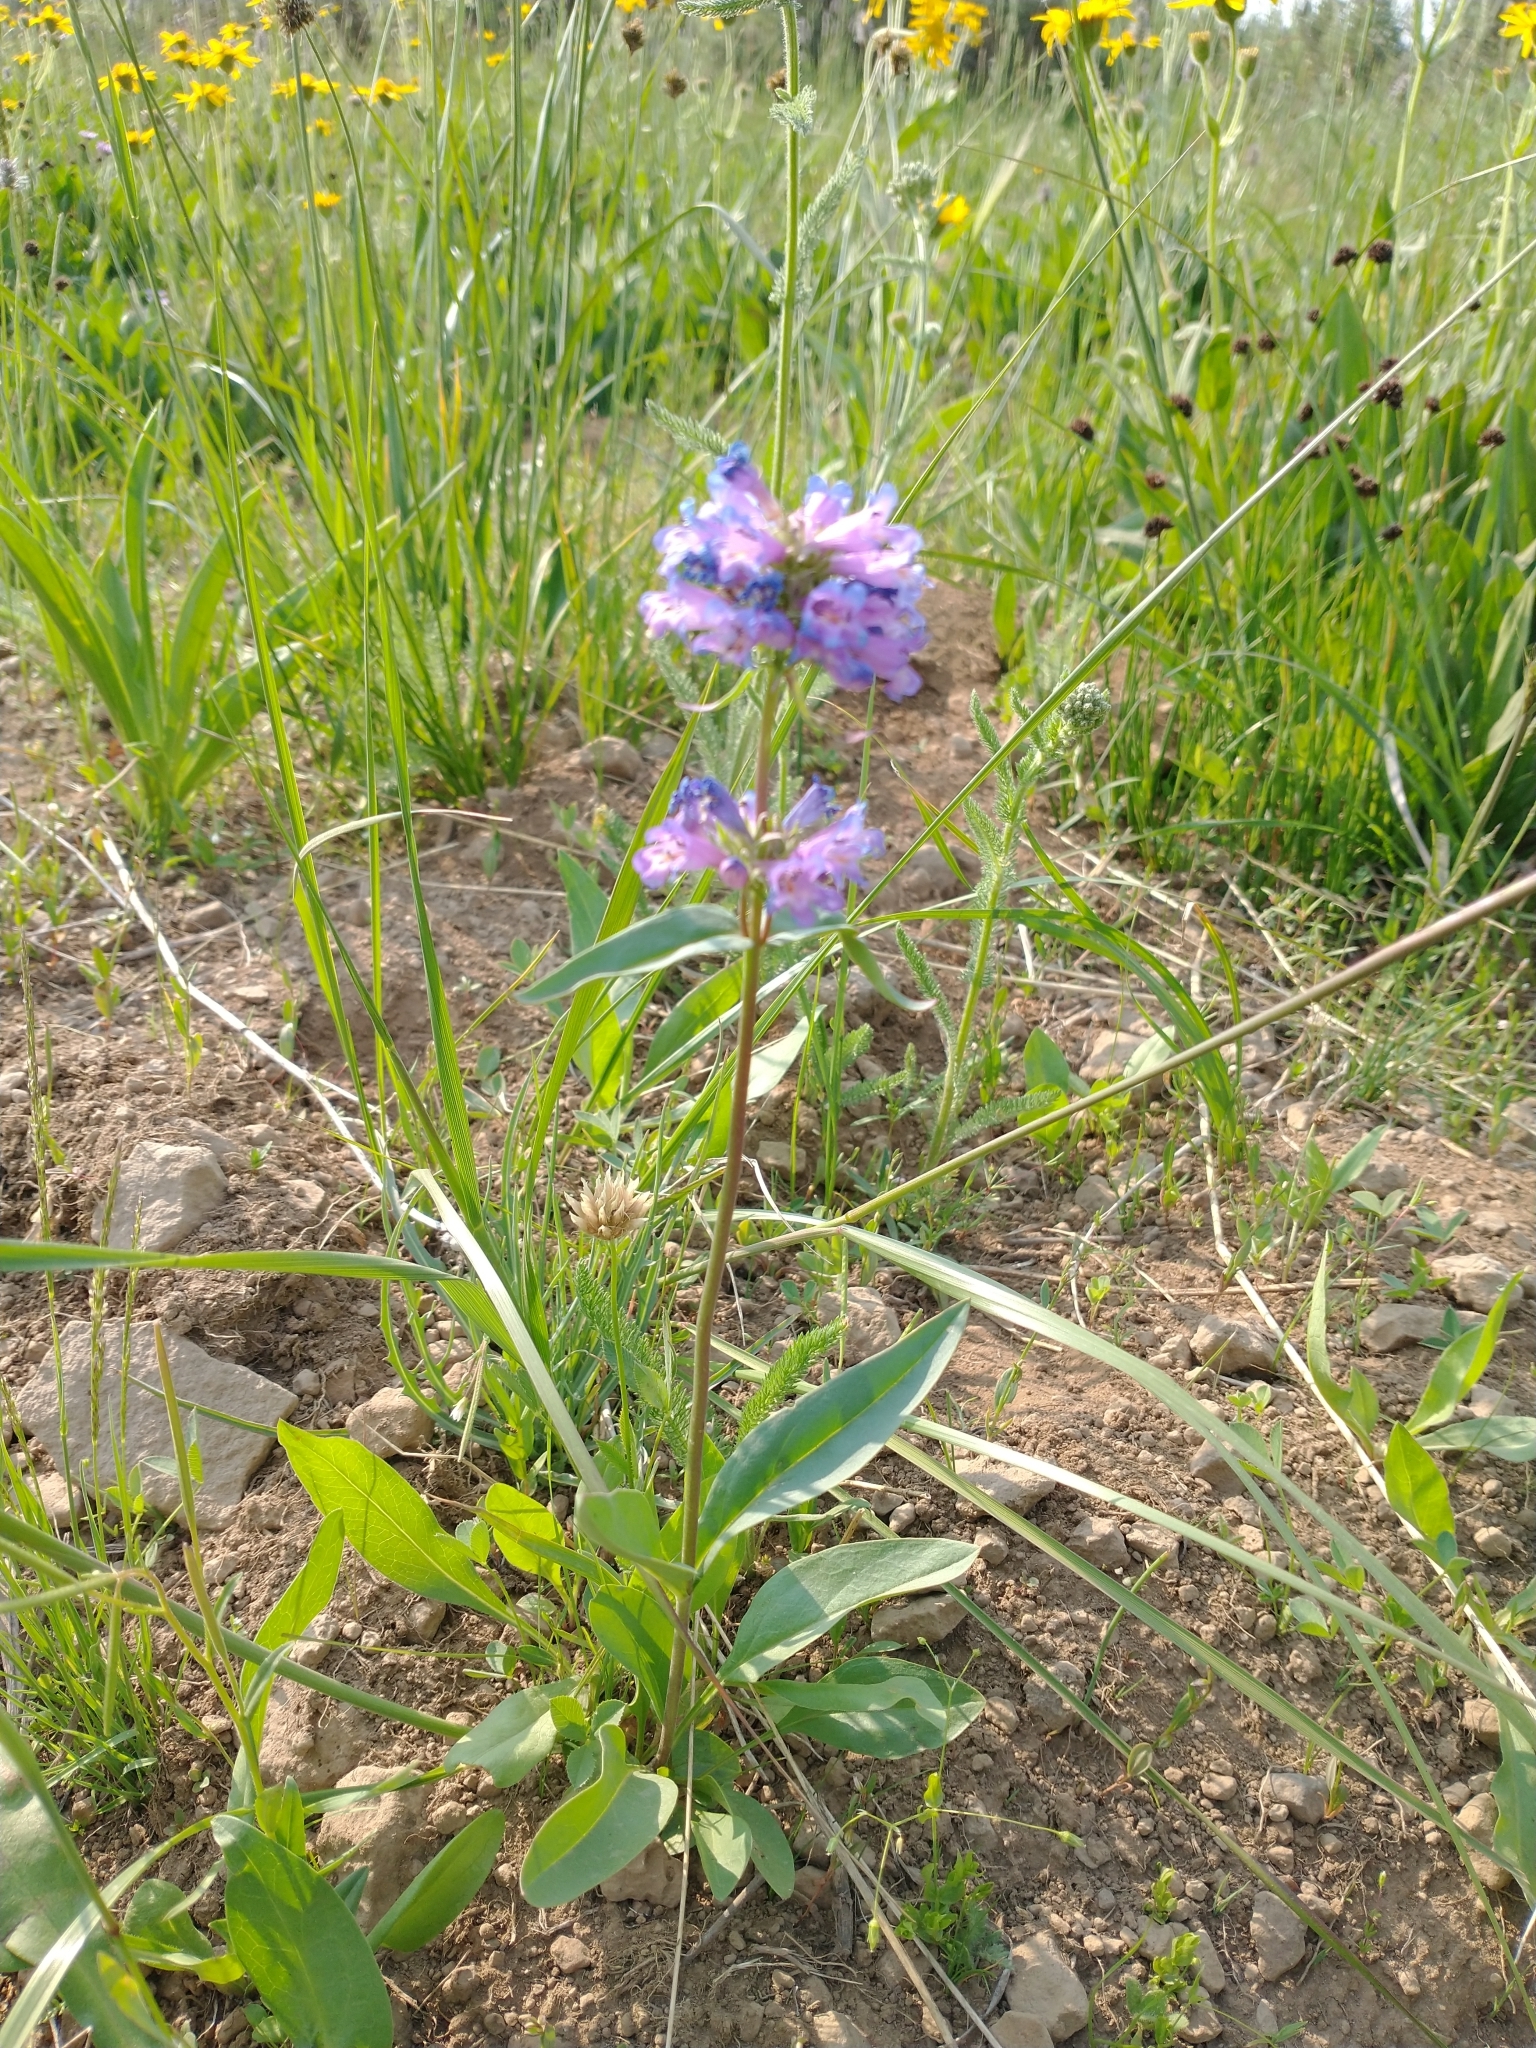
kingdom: Plantae
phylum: Tracheophyta
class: Magnoliopsida
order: Lamiales
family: Plantaginaceae
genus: Penstemon
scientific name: Penstemon procerus
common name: Small-flower penstemon
